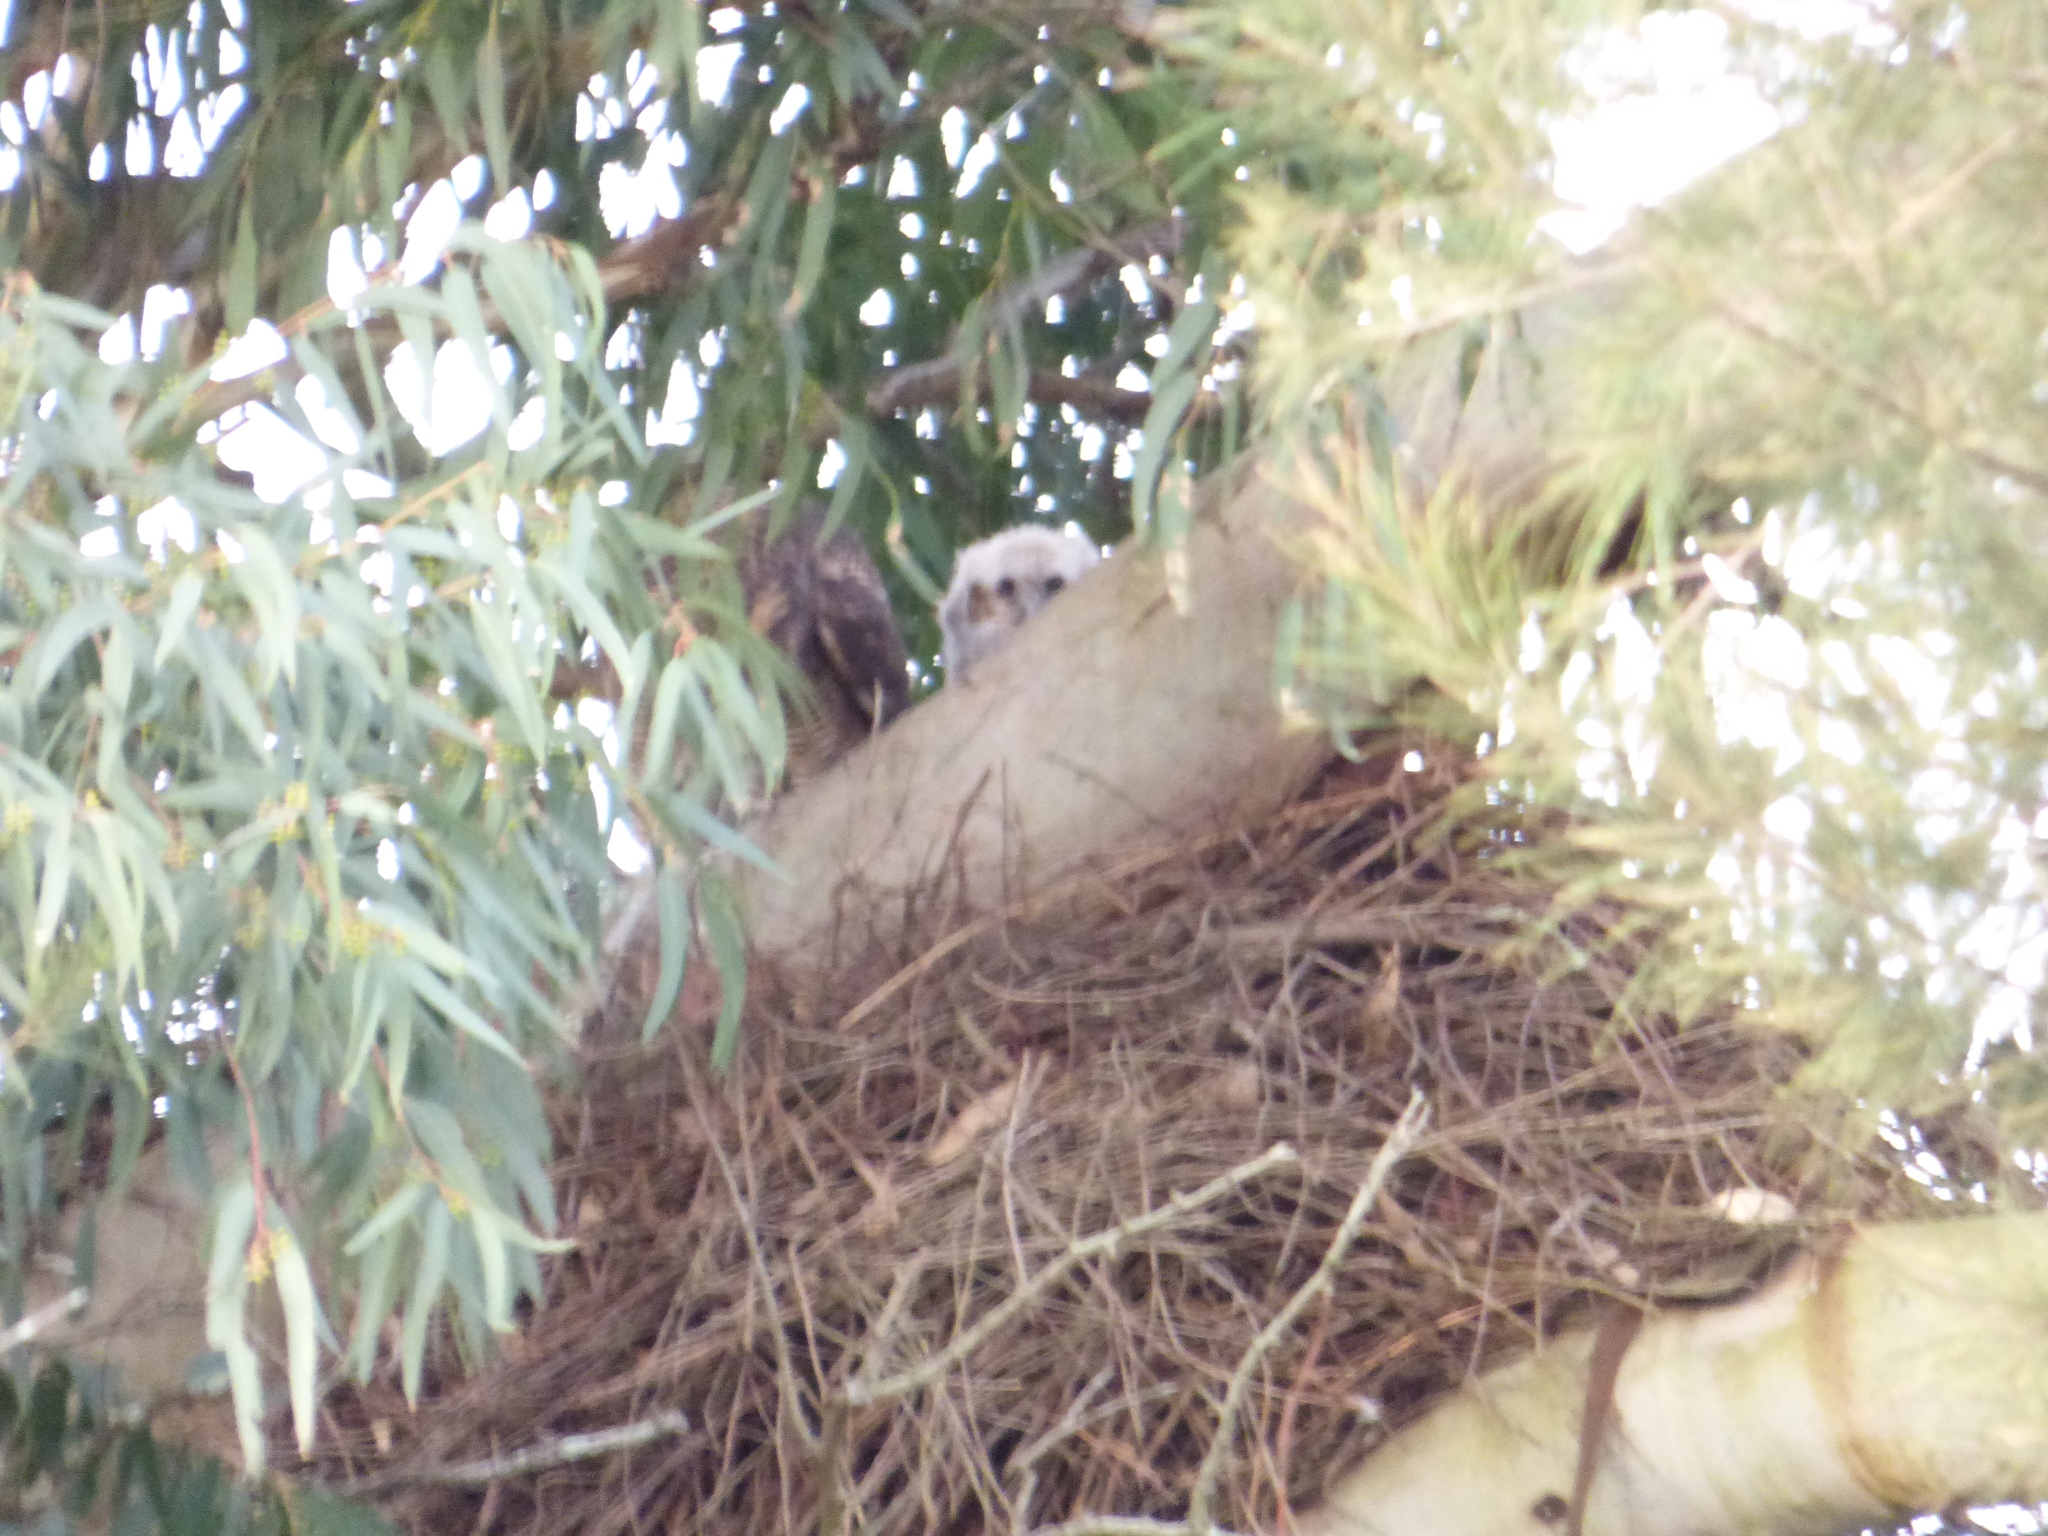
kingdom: Animalia
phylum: Chordata
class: Aves
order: Strigiformes
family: Strigidae
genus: Bubo
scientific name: Bubo virginianus
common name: Great horned owl
